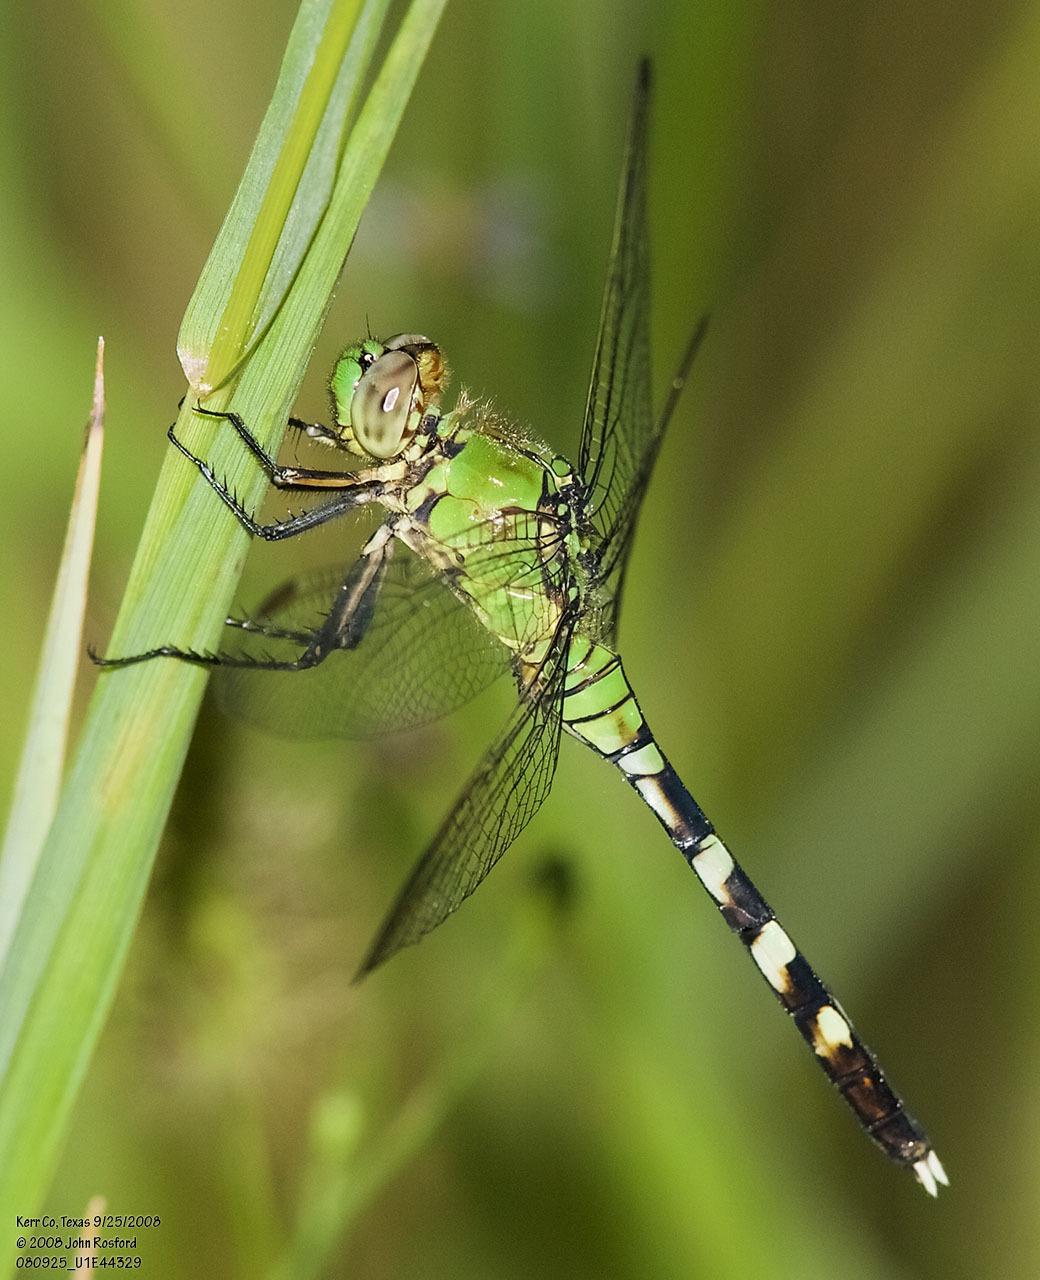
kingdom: Animalia
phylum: Arthropoda
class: Insecta
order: Odonata
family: Libellulidae
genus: Erythemis
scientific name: Erythemis simplicicollis
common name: Eastern pondhawk
